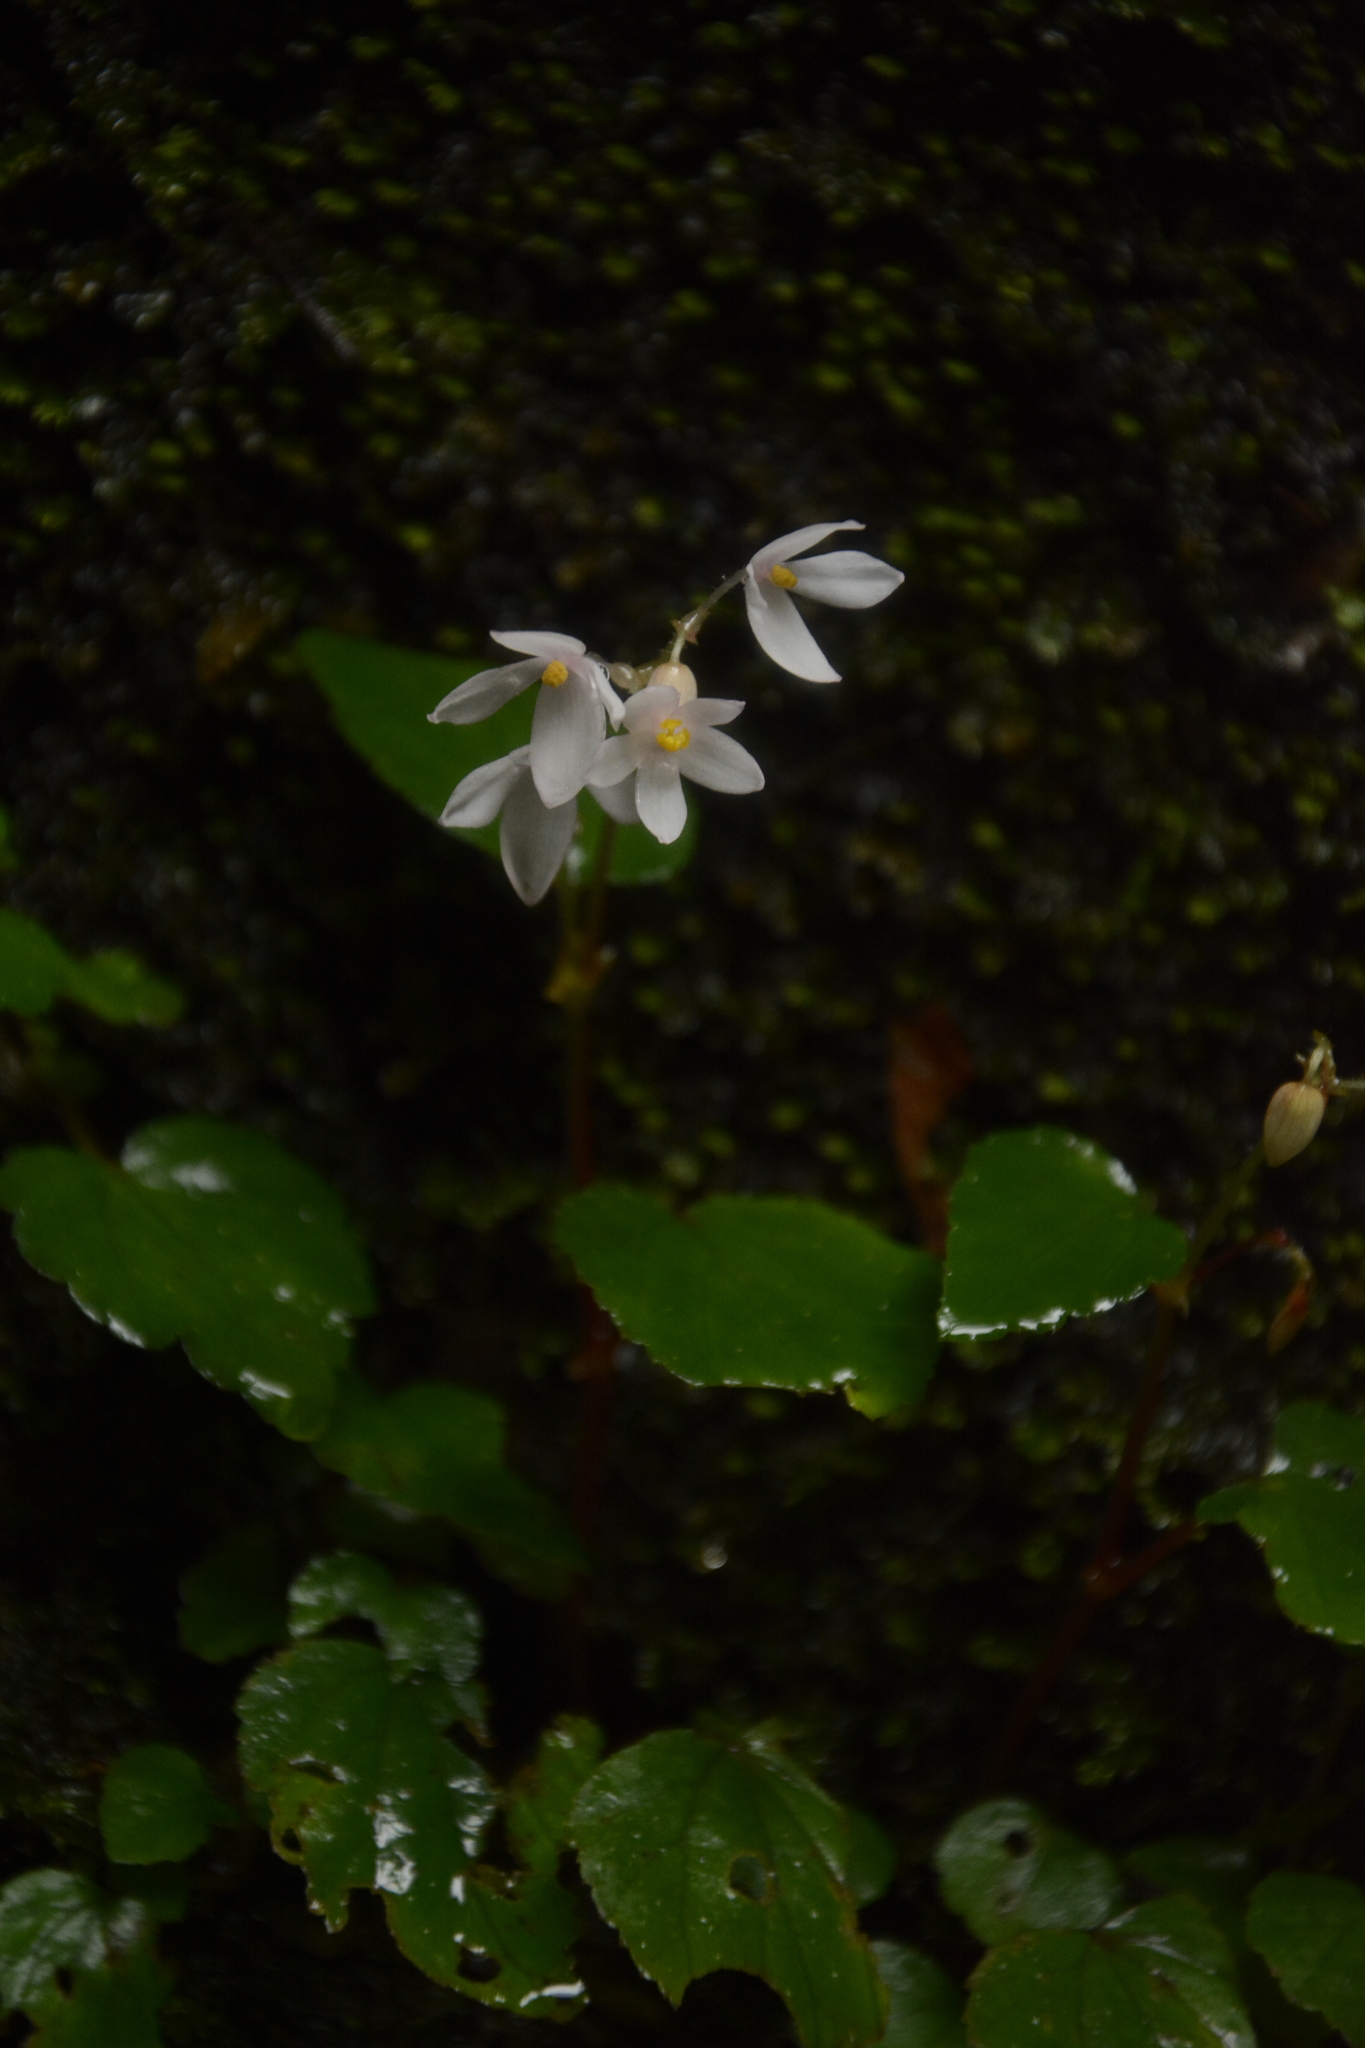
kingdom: Plantae
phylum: Tracheophyta
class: Magnoliopsida
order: Cucurbitales
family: Begoniaceae
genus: Begonia
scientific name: Begonia crenata
